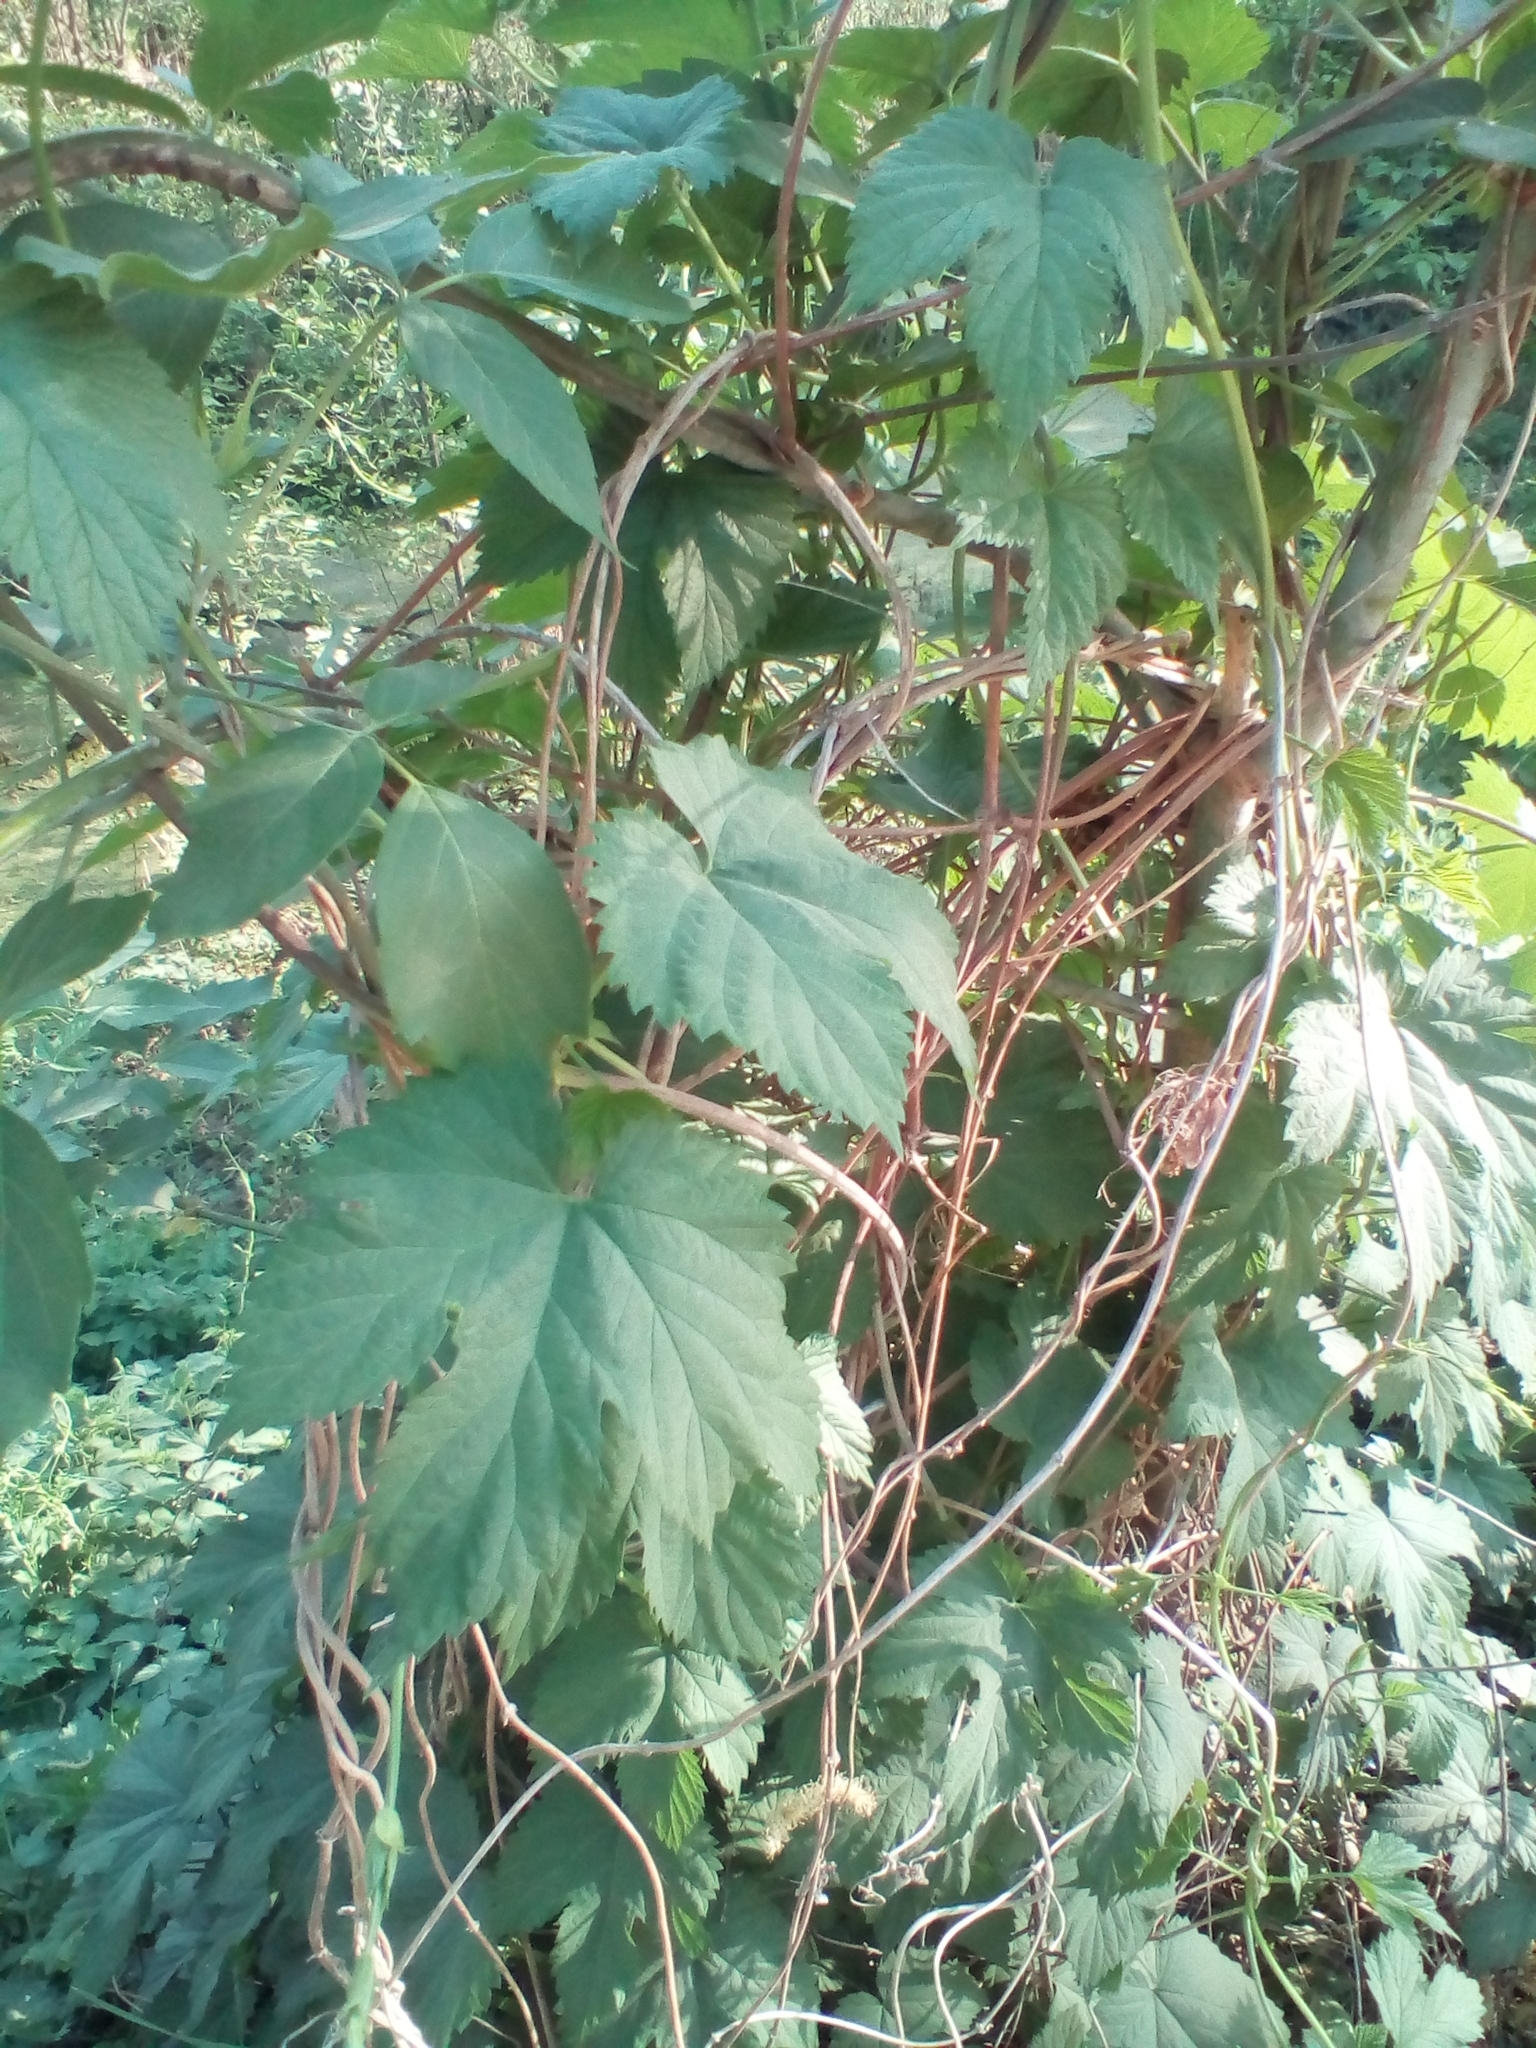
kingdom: Plantae
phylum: Tracheophyta
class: Magnoliopsida
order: Rosales
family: Cannabaceae
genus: Humulus
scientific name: Humulus lupulus
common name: Hop
